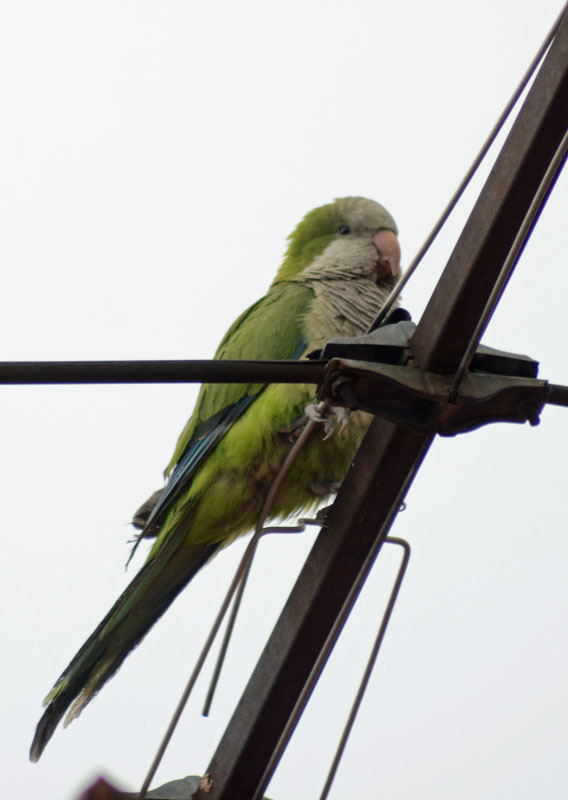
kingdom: Animalia
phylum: Chordata
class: Aves
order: Psittaciformes
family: Psittacidae
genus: Myiopsitta
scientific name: Myiopsitta monachus
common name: Monk parakeet
